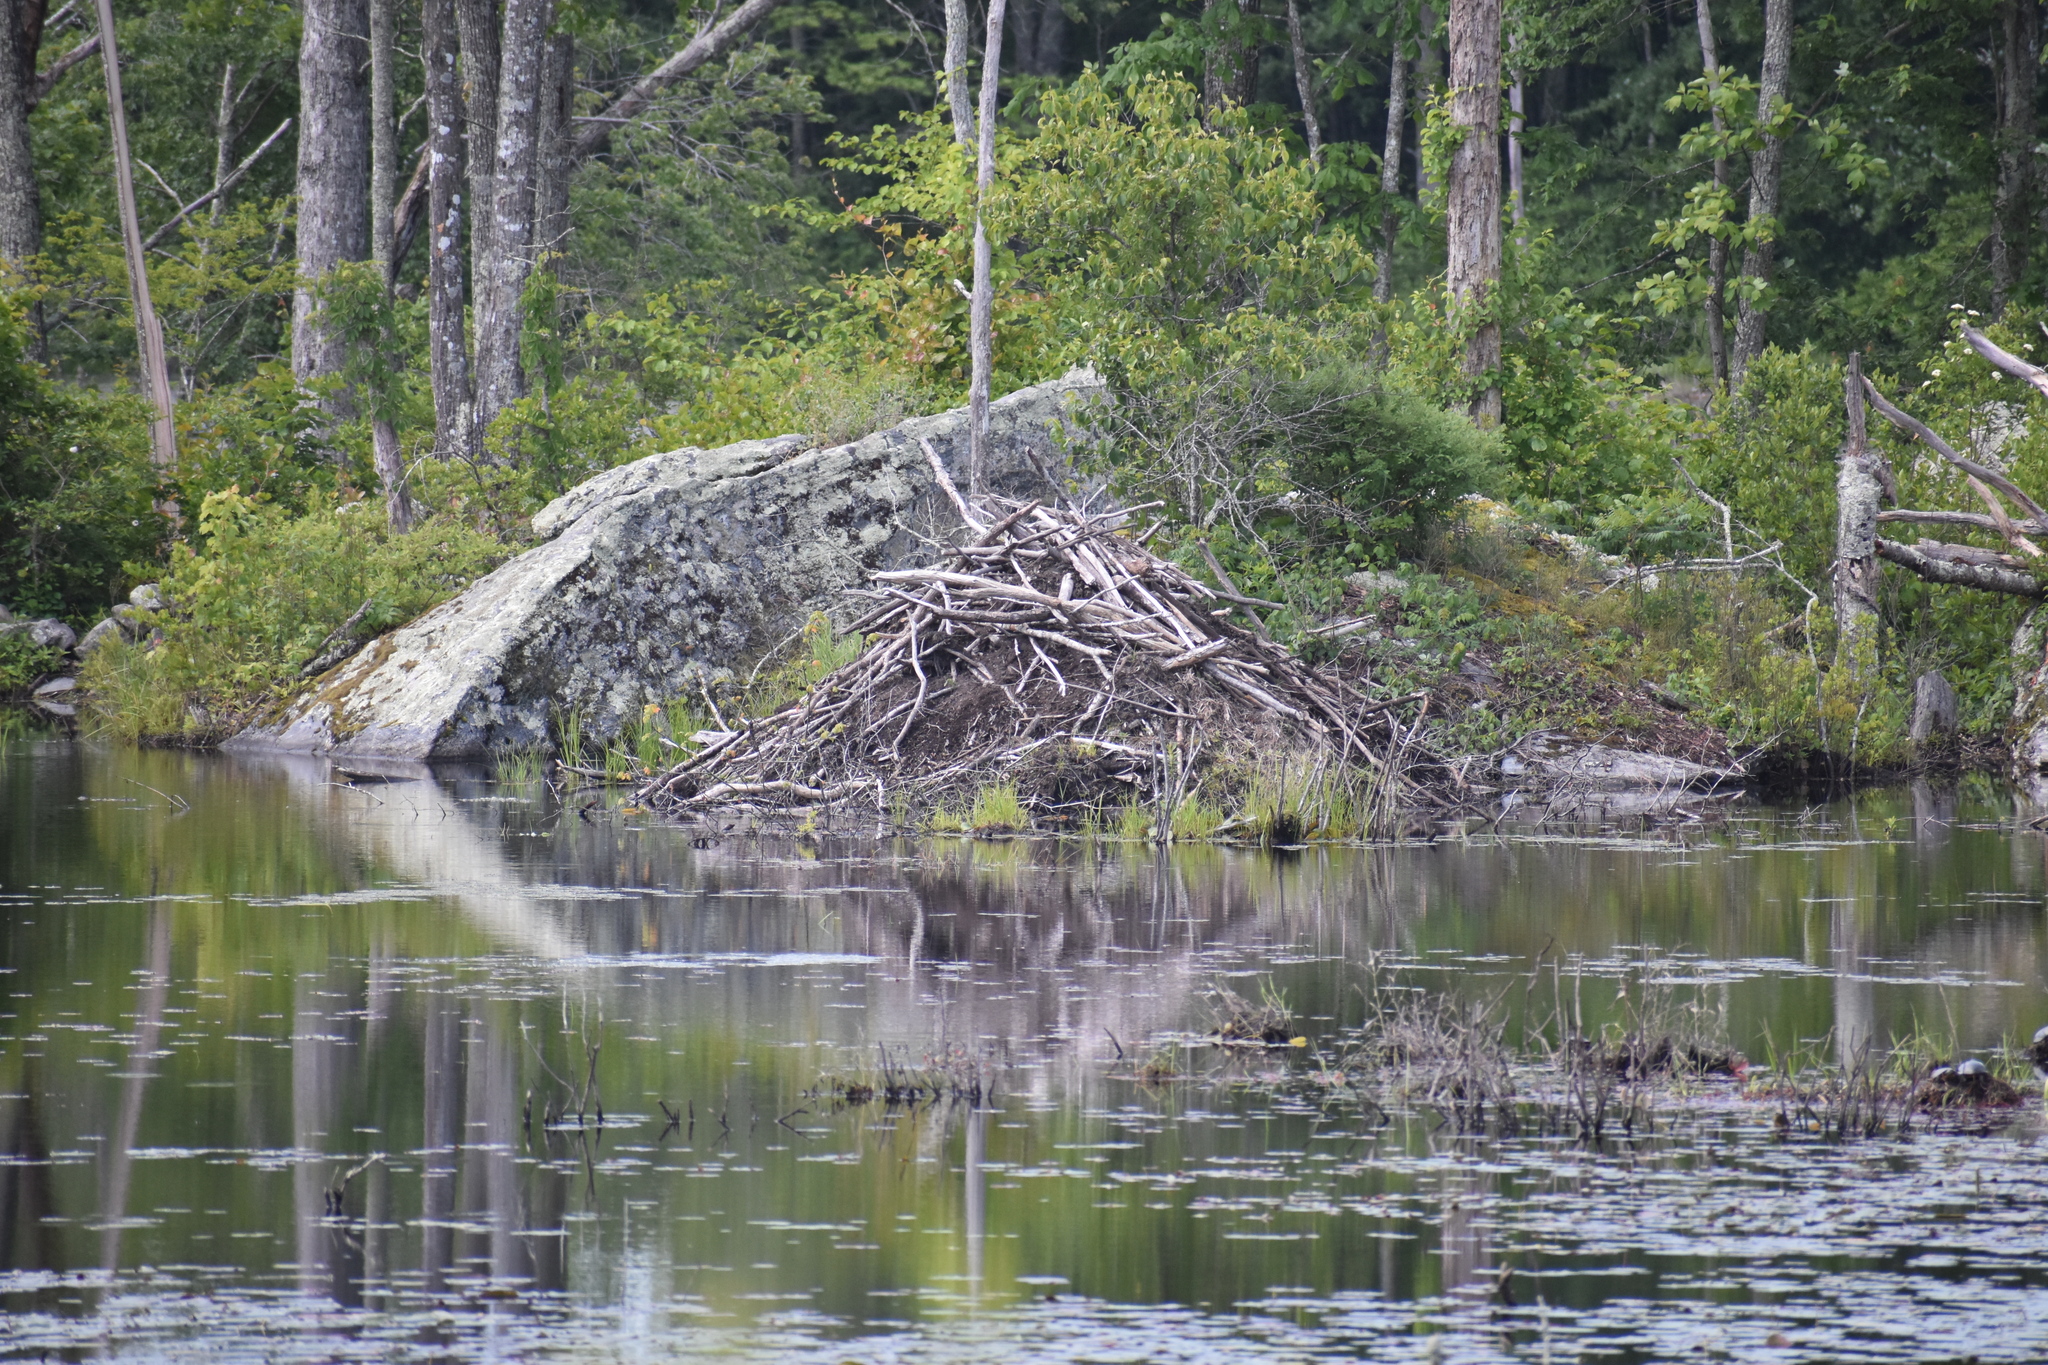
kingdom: Animalia
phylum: Chordata
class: Mammalia
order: Rodentia
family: Castoridae
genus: Castor
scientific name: Castor canadensis
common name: American beaver
